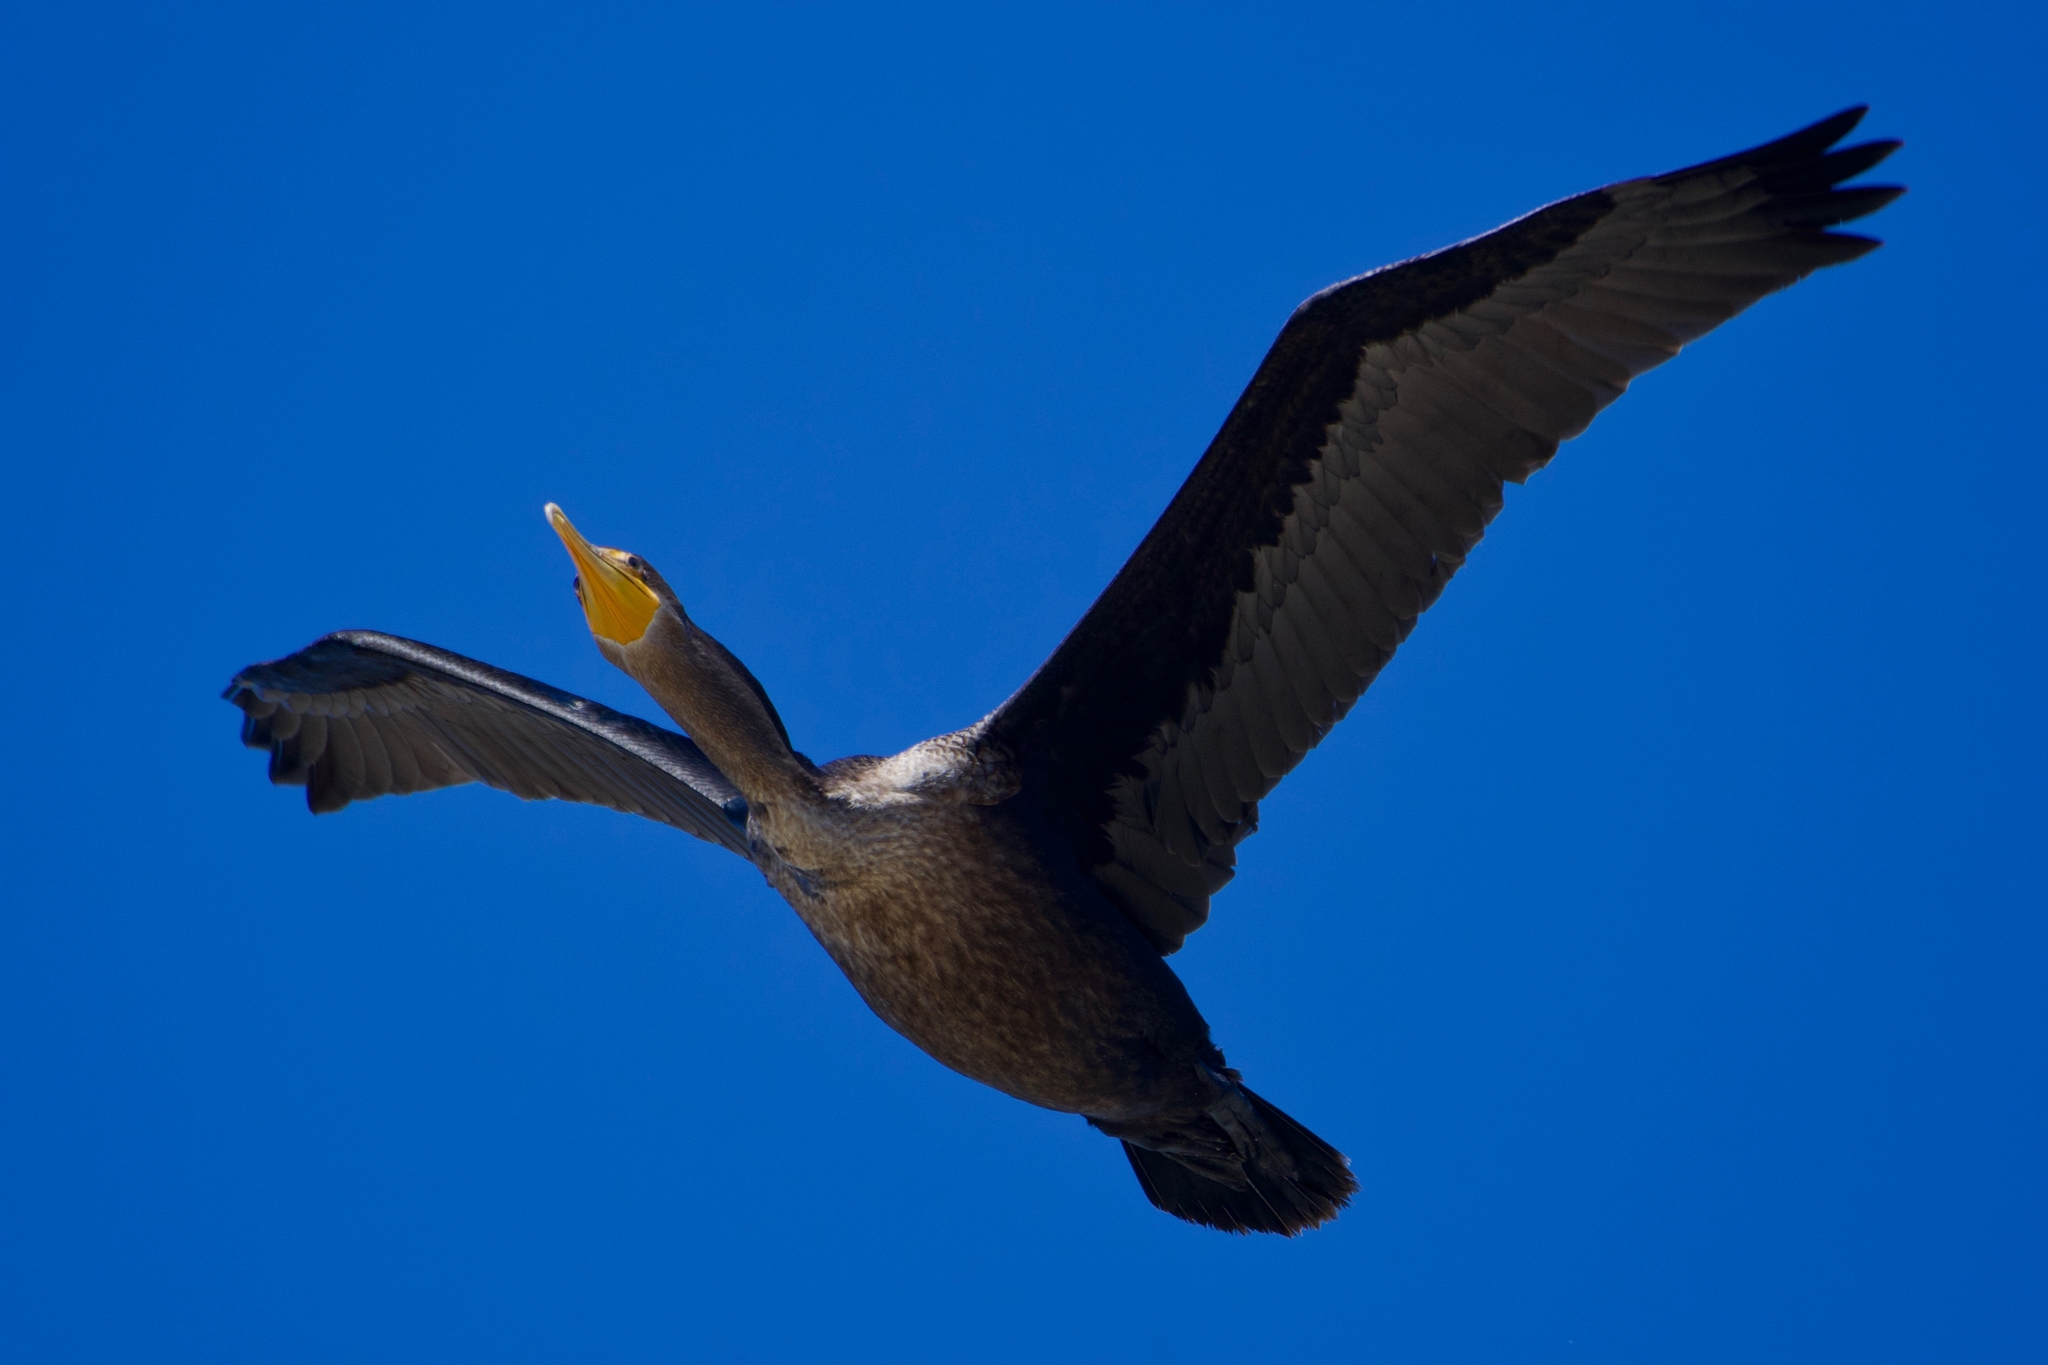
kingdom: Animalia
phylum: Chordata
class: Aves
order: Suliformes
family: Phalacrocoracidae
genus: Phalacrocorax
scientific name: Phalacrocorax auritus
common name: Double-crested cormorant
